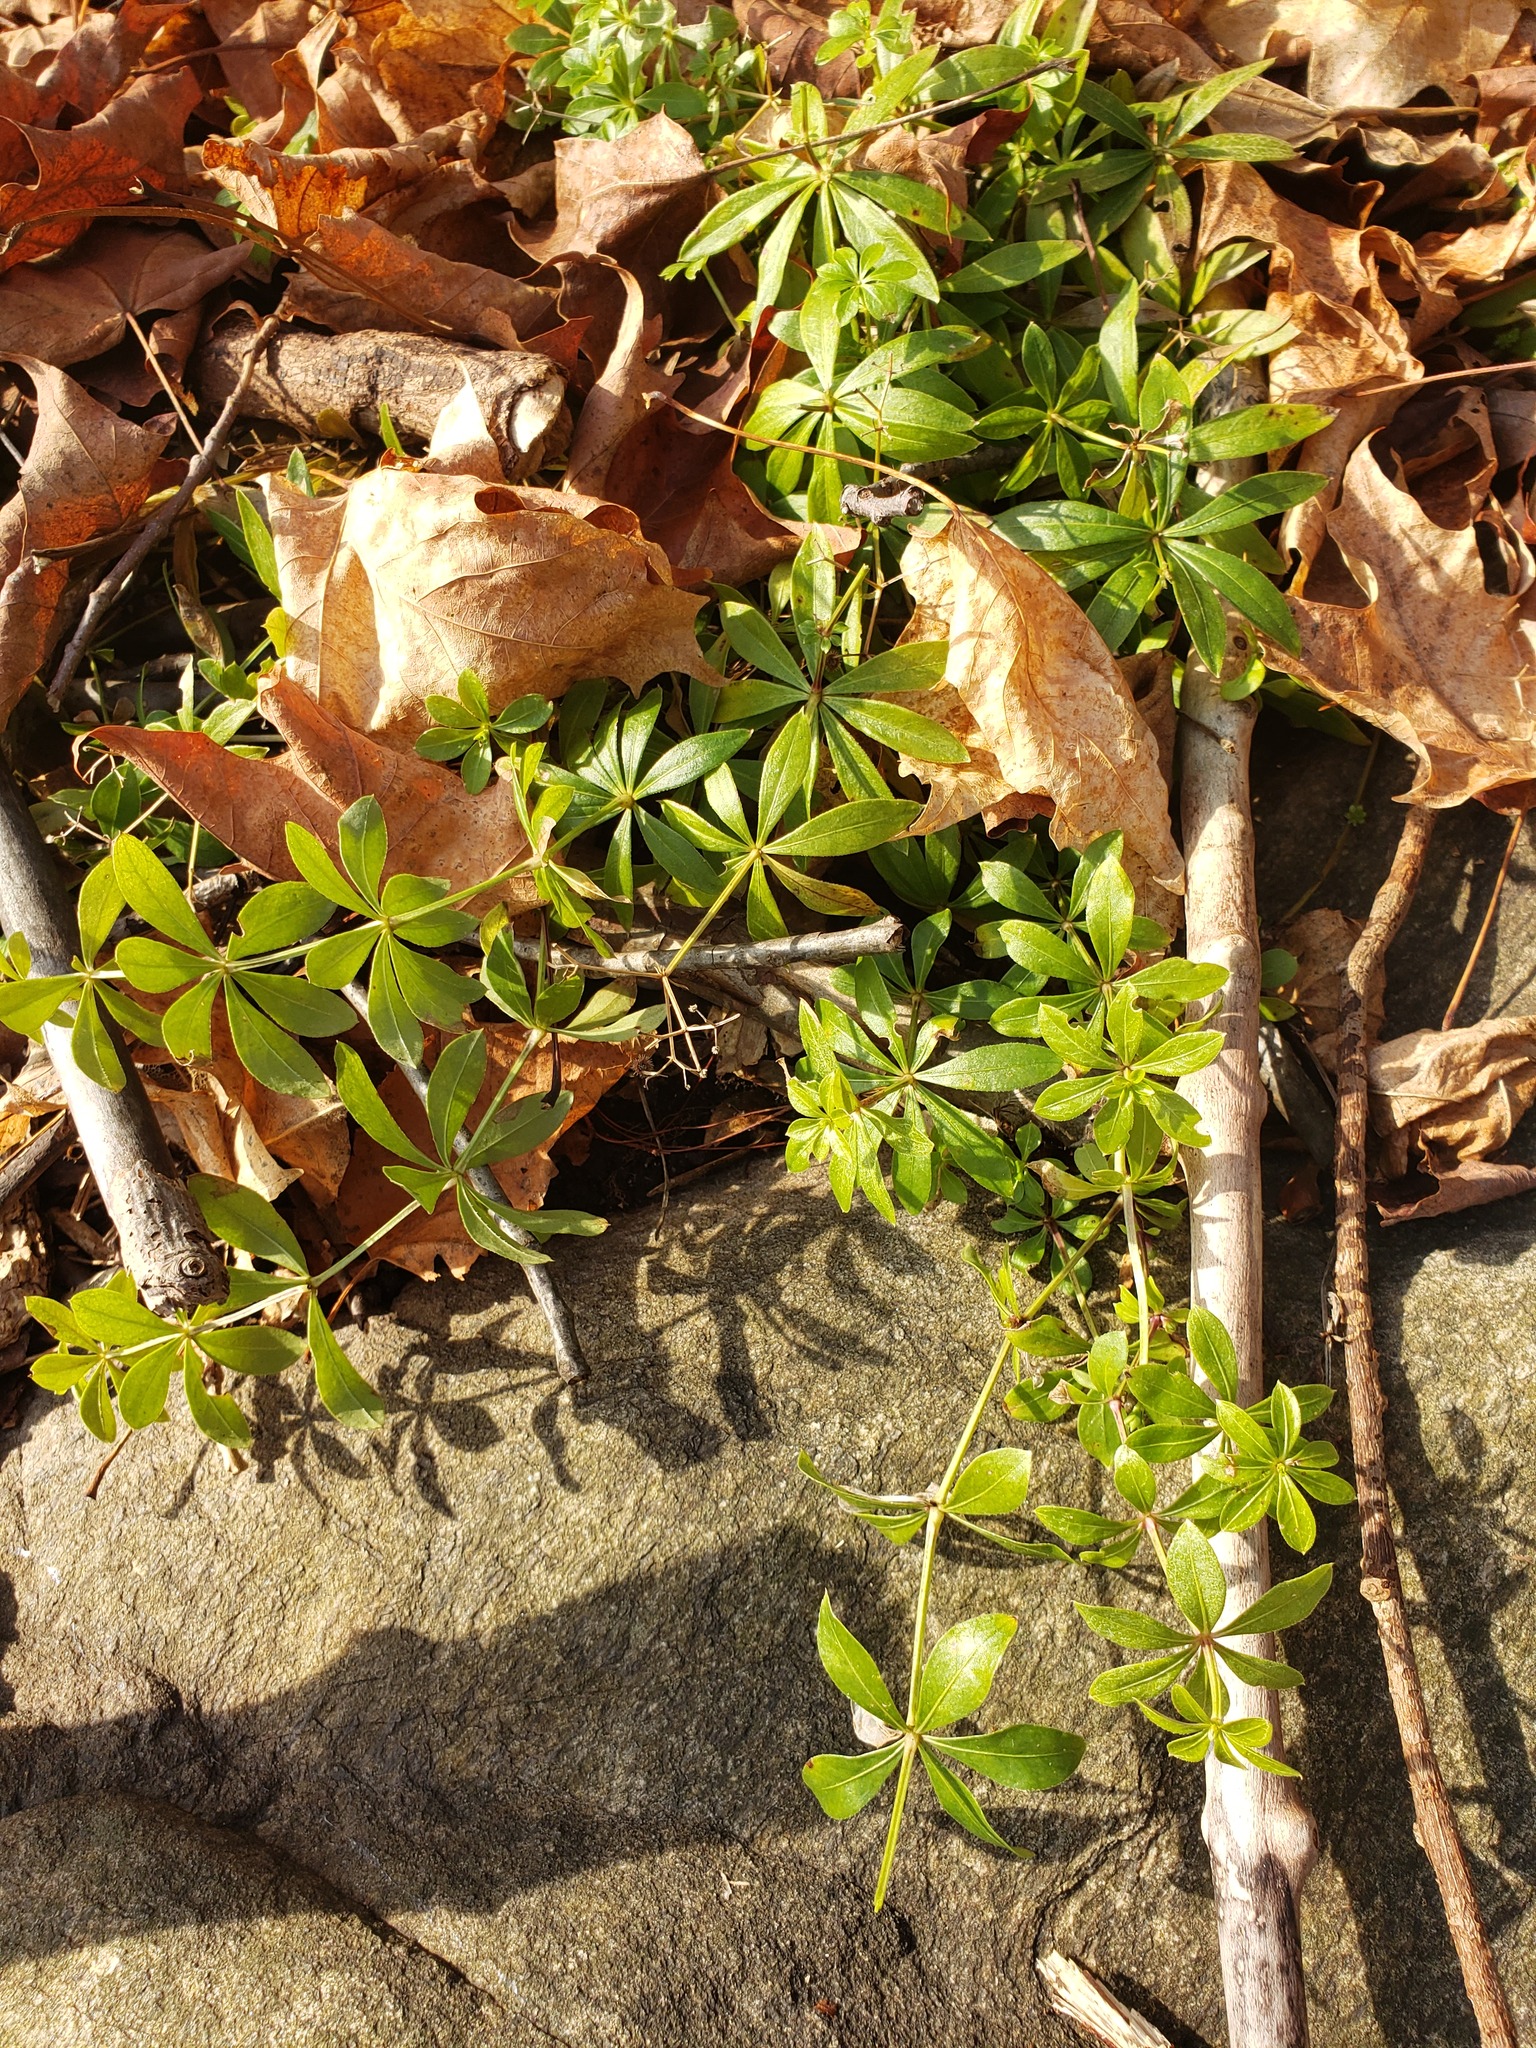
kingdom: Plantae
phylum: Tracheophyta
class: Magnoliopsida
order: Gentianales
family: Rubiaceae
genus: Galium
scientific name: Galium odoratum
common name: Sweet woodruff
